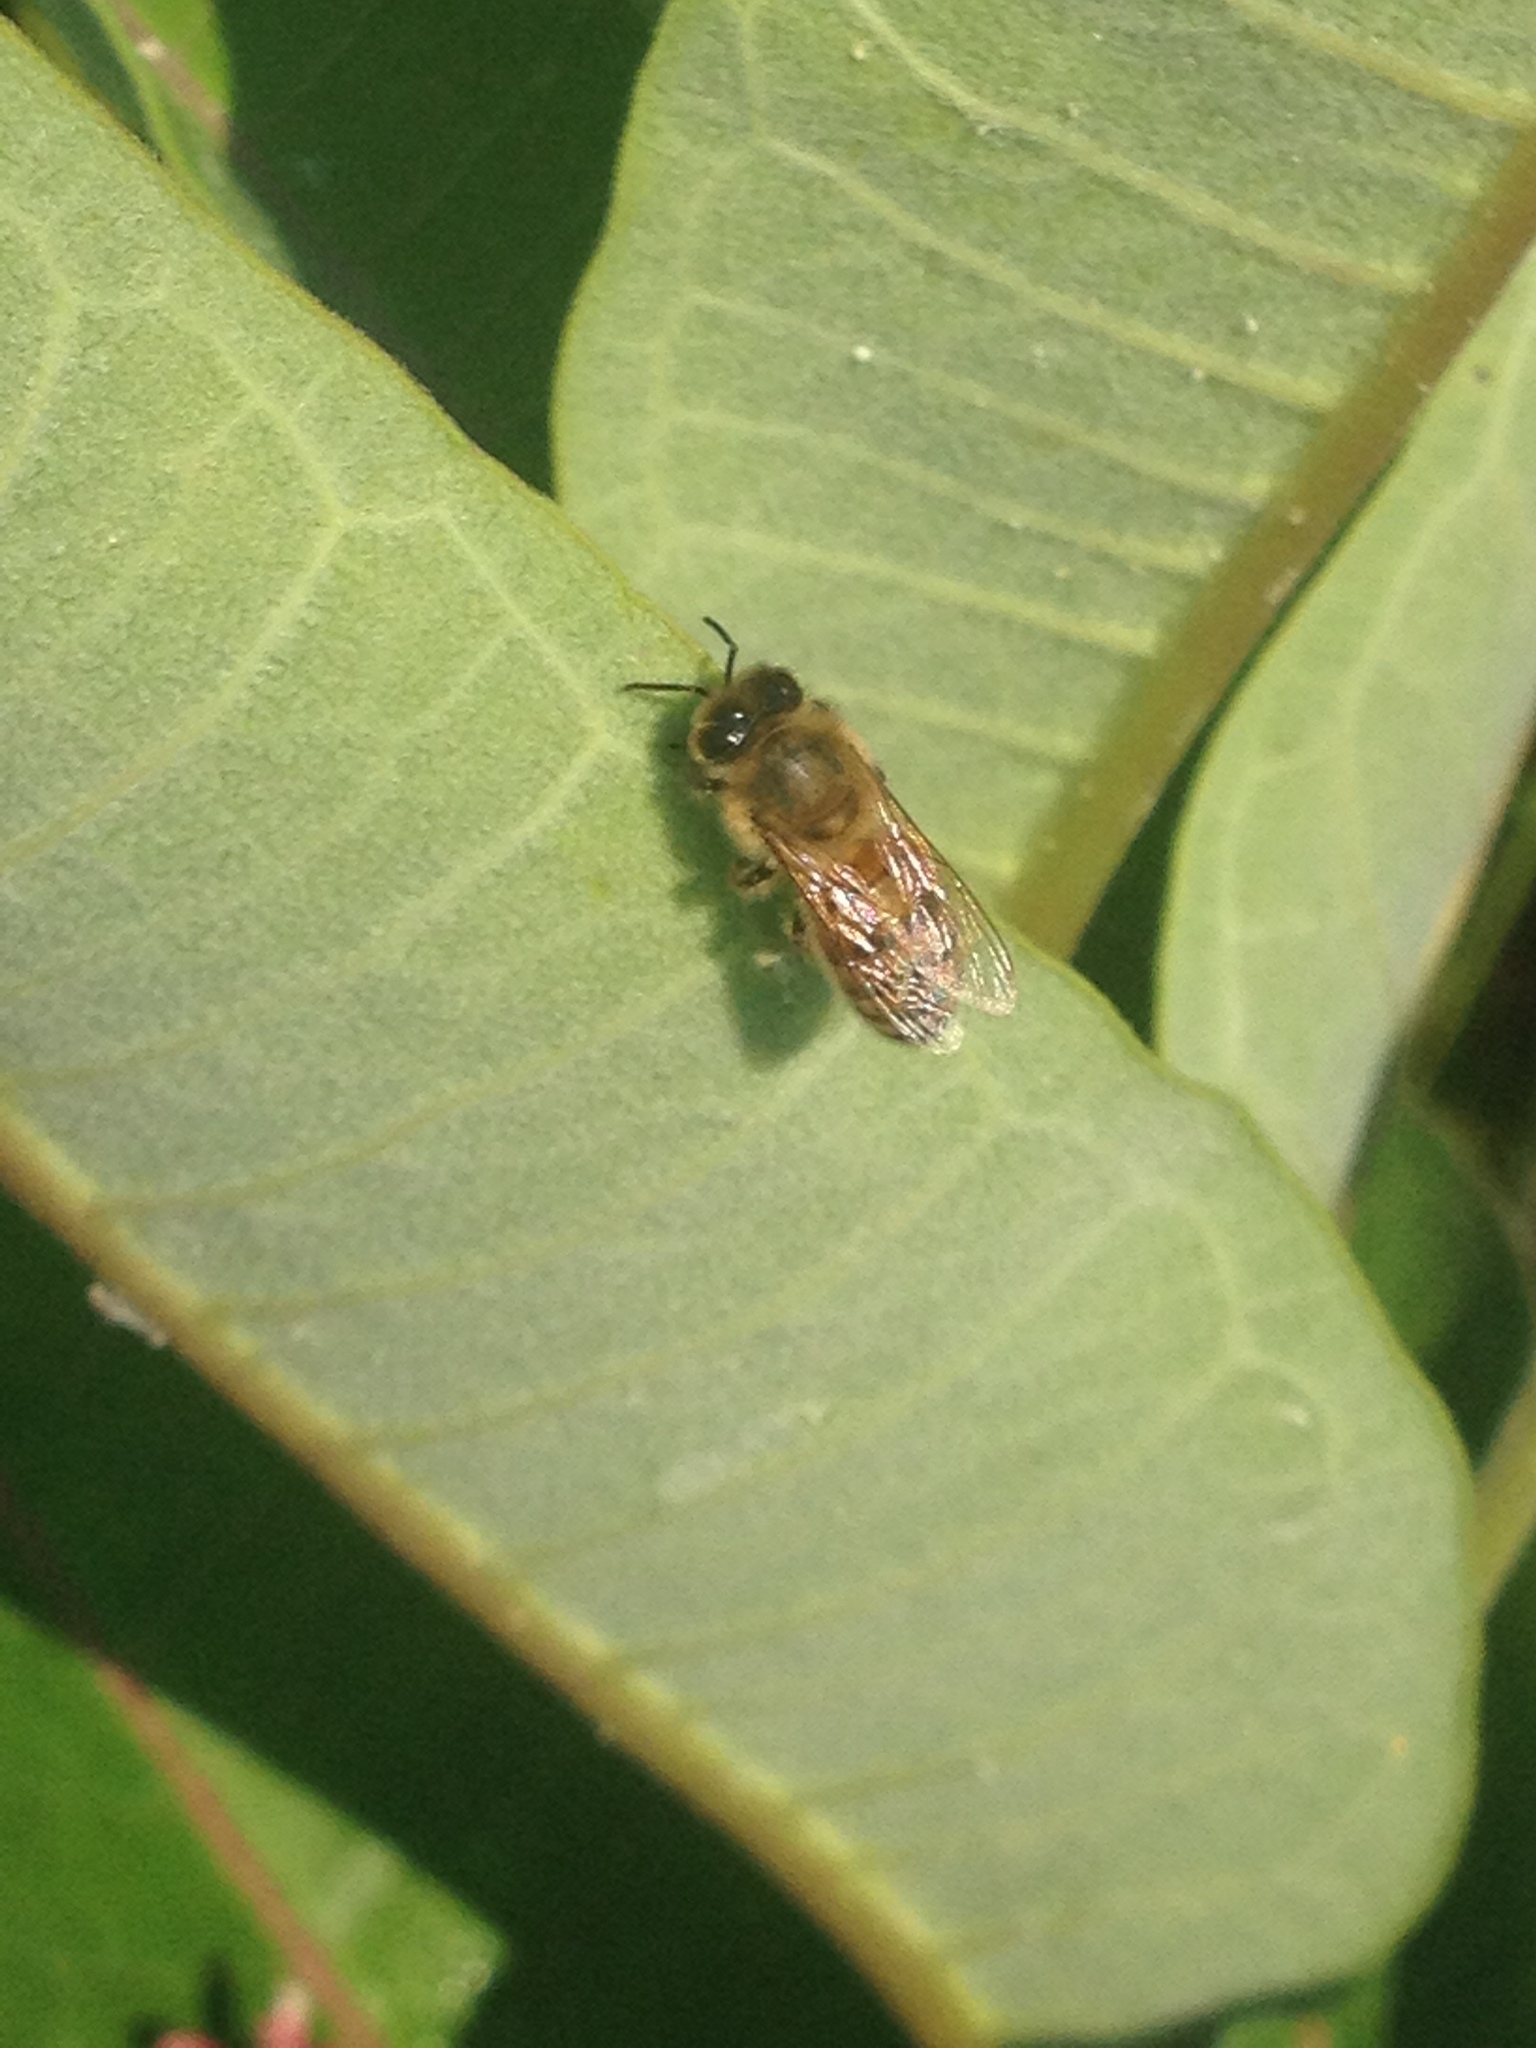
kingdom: Animalia
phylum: Arthropoda
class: Insecta
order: Hymenoptera
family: Apidae
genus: Apis
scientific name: Apis mellifera
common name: Honey bee
